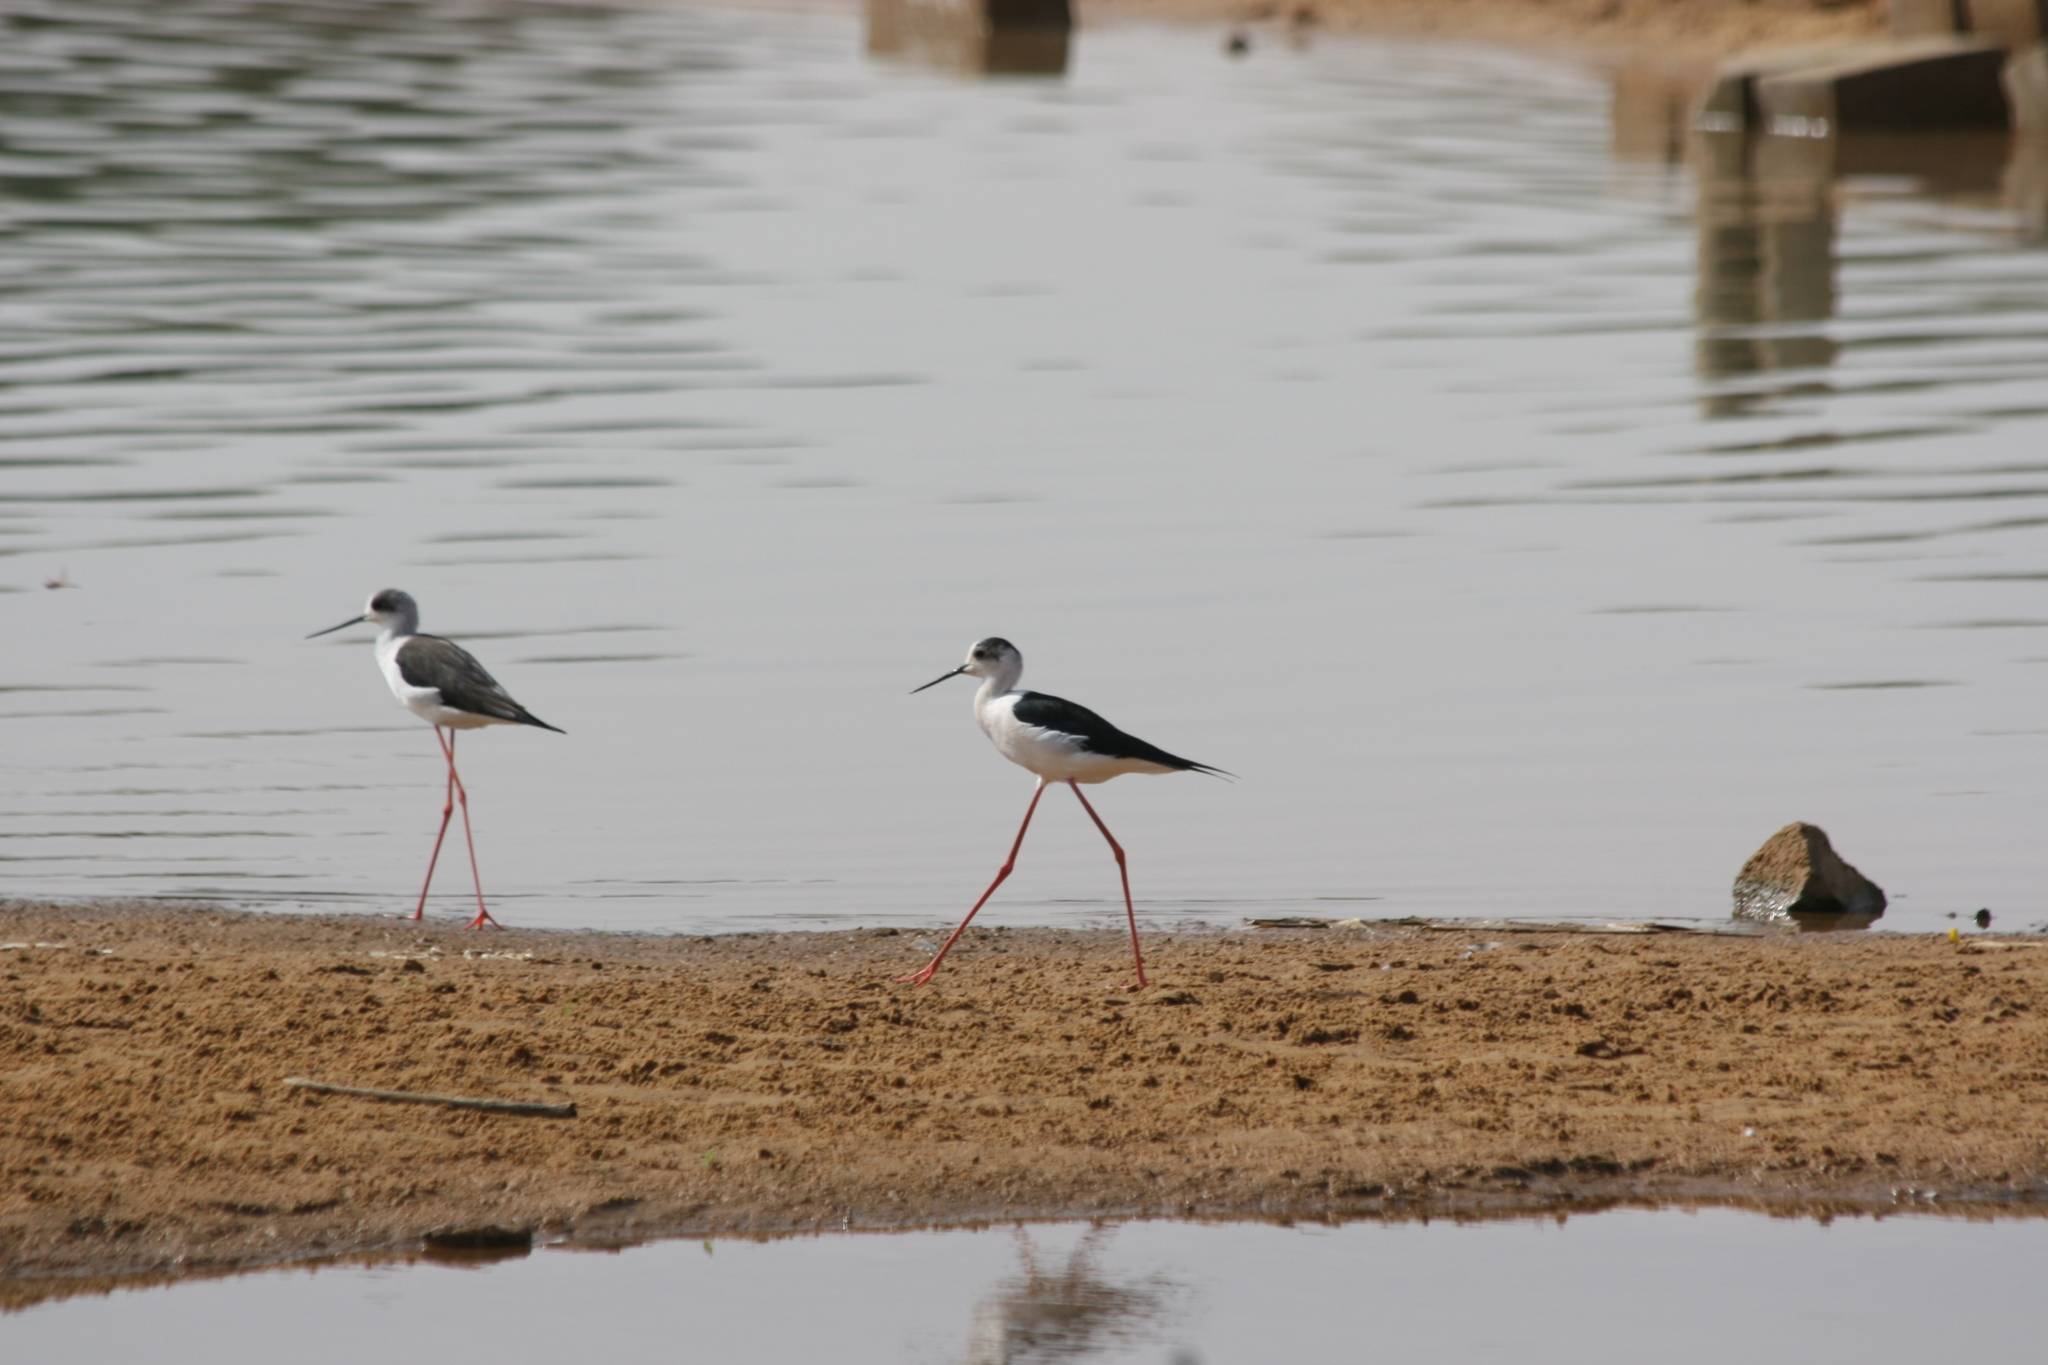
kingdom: Animalia
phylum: Chordata
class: Aves
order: Charadriiformes
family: Recurvirostridae
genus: Himantopus
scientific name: Himantopus himantopus
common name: Black-winged stilt
